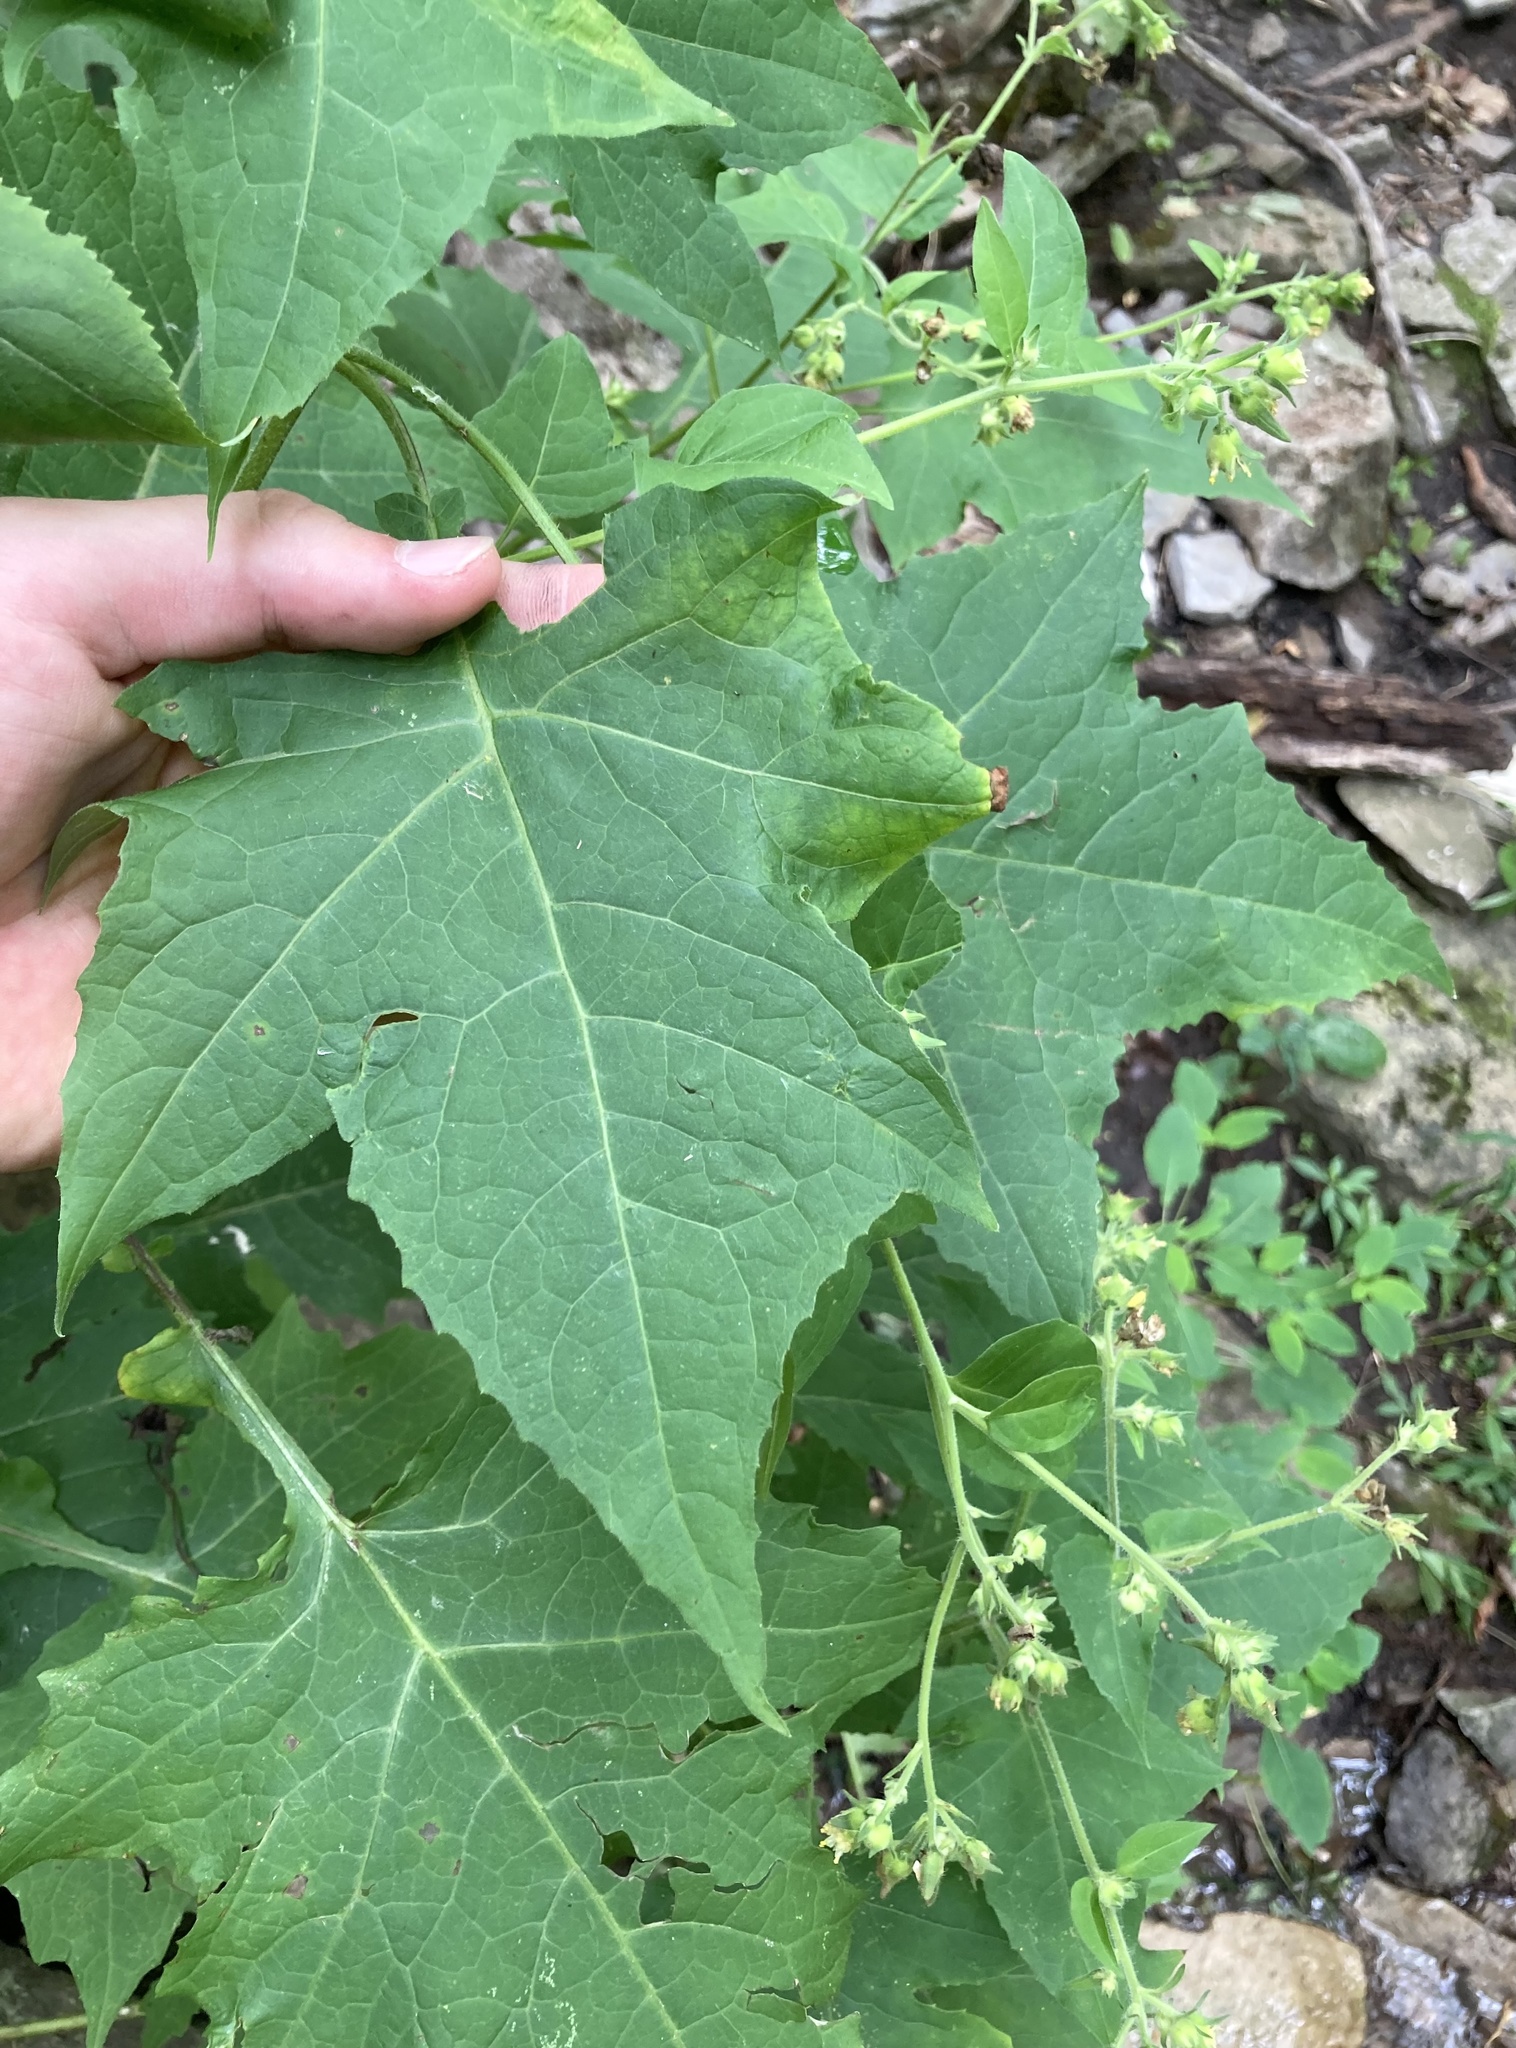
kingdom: Plantae
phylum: Tracheophyta
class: Magnoliopsida
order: Asterales
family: Asteraceae
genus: Polymnia
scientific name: Polymnia canadensis
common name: Pale-flowered leafcup
